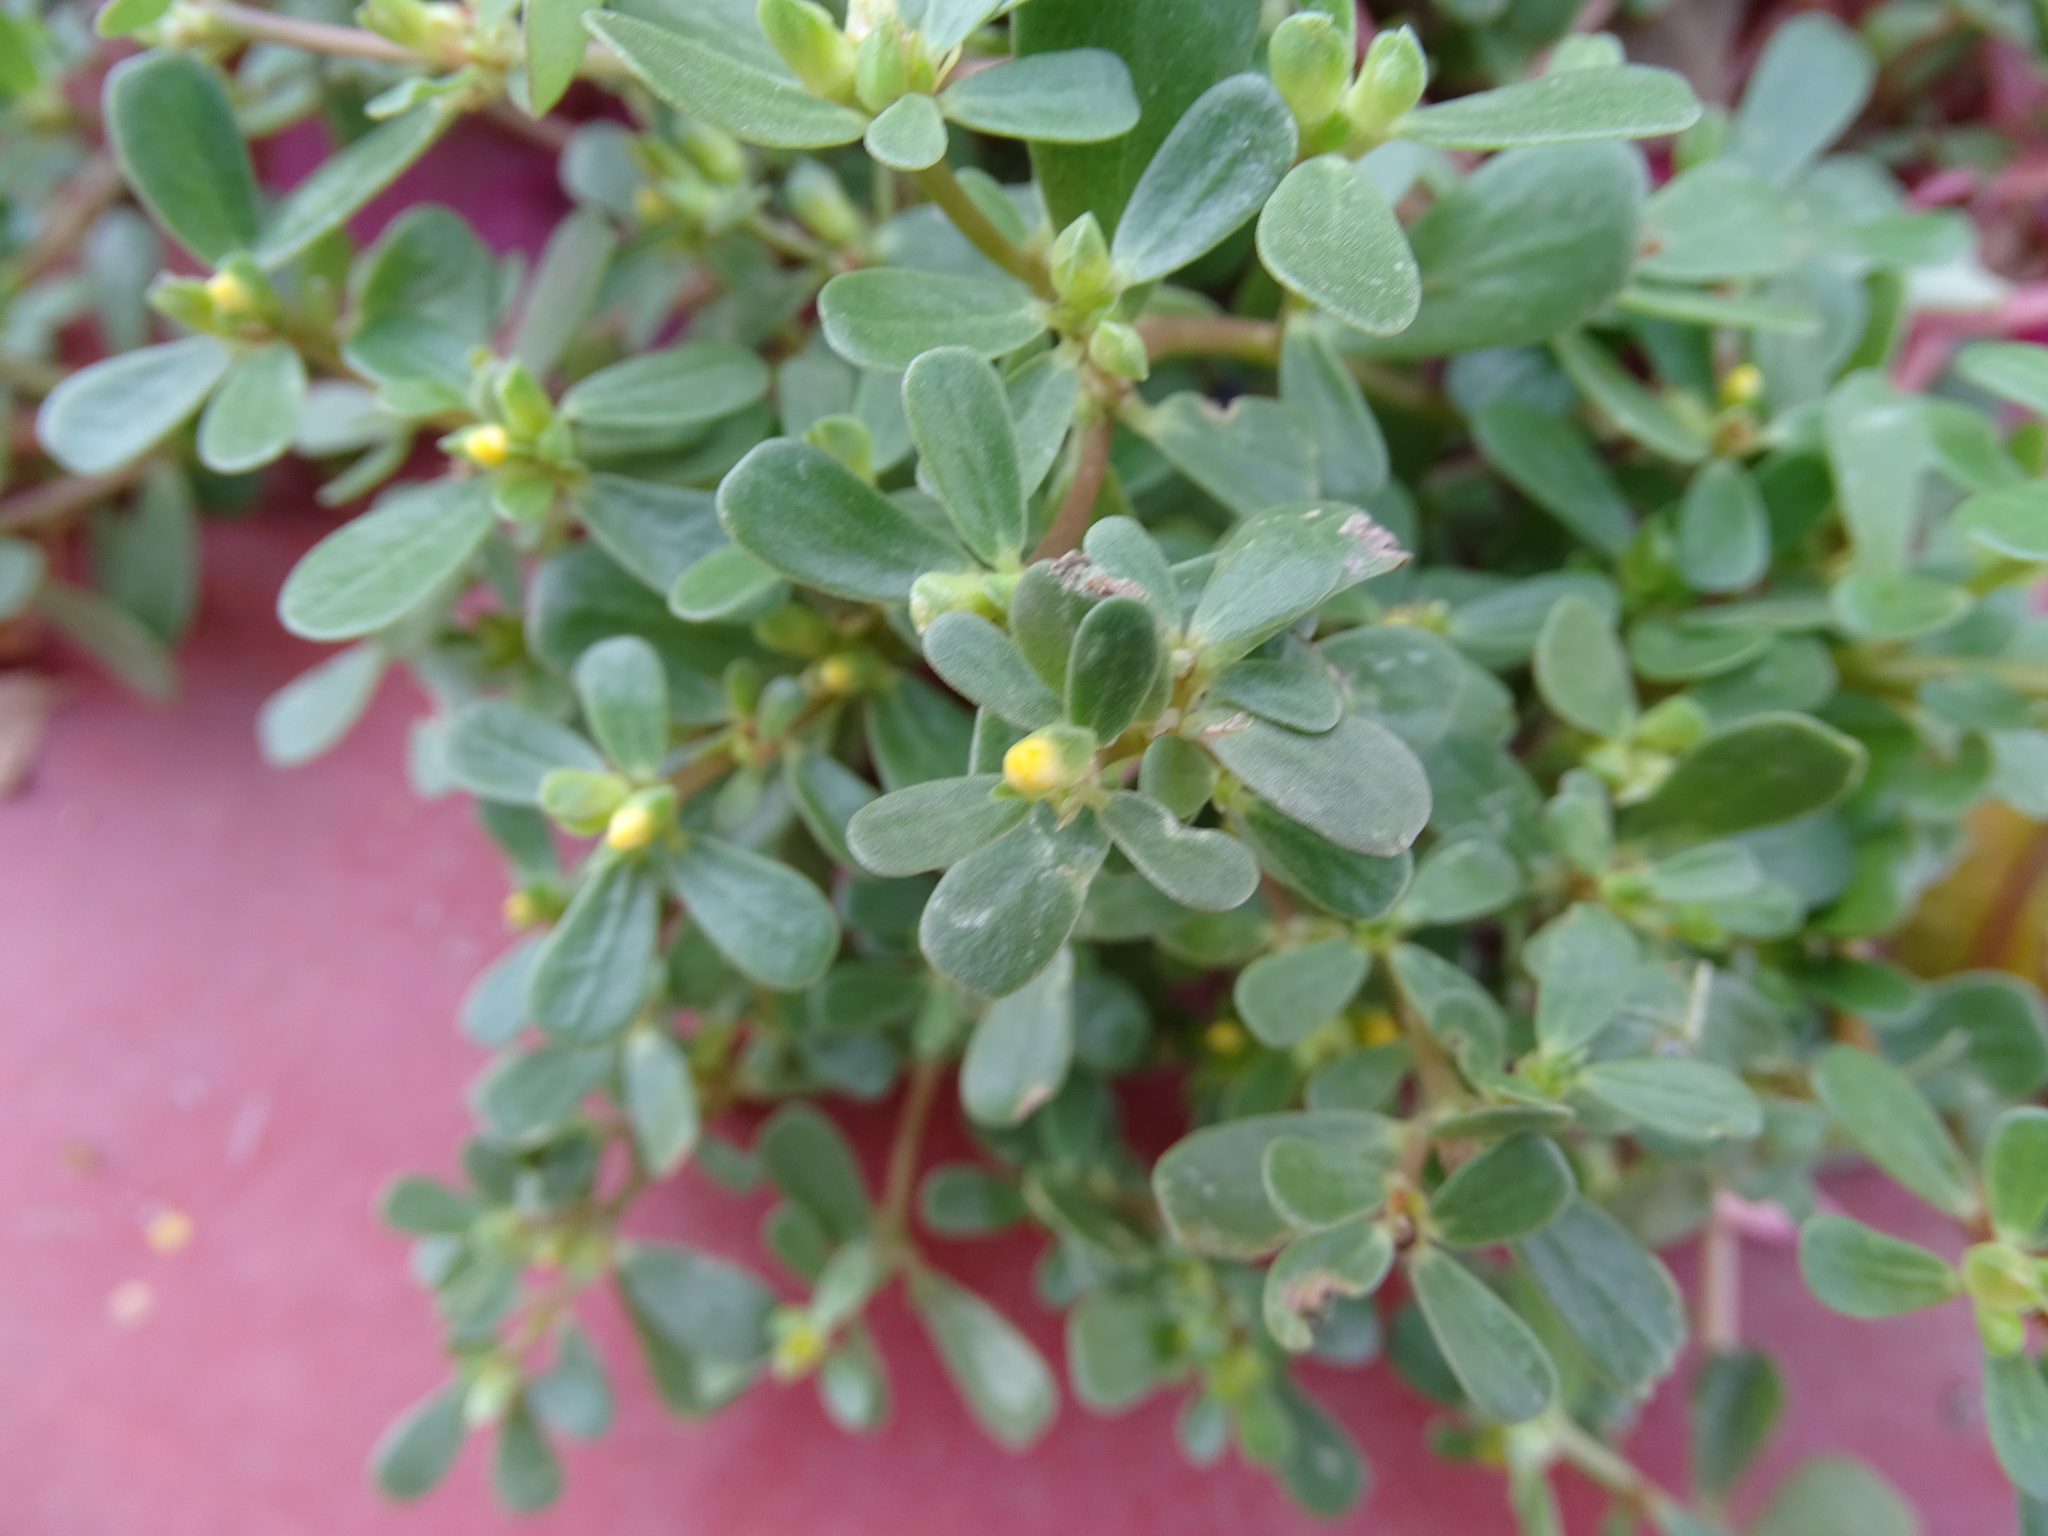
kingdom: Plantae
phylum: Tracheophyta
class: Magnoliopsida
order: Caryophyllales
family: Portulacaceae
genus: Portulaca
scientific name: Portulaca oleracea
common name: Common purslane
